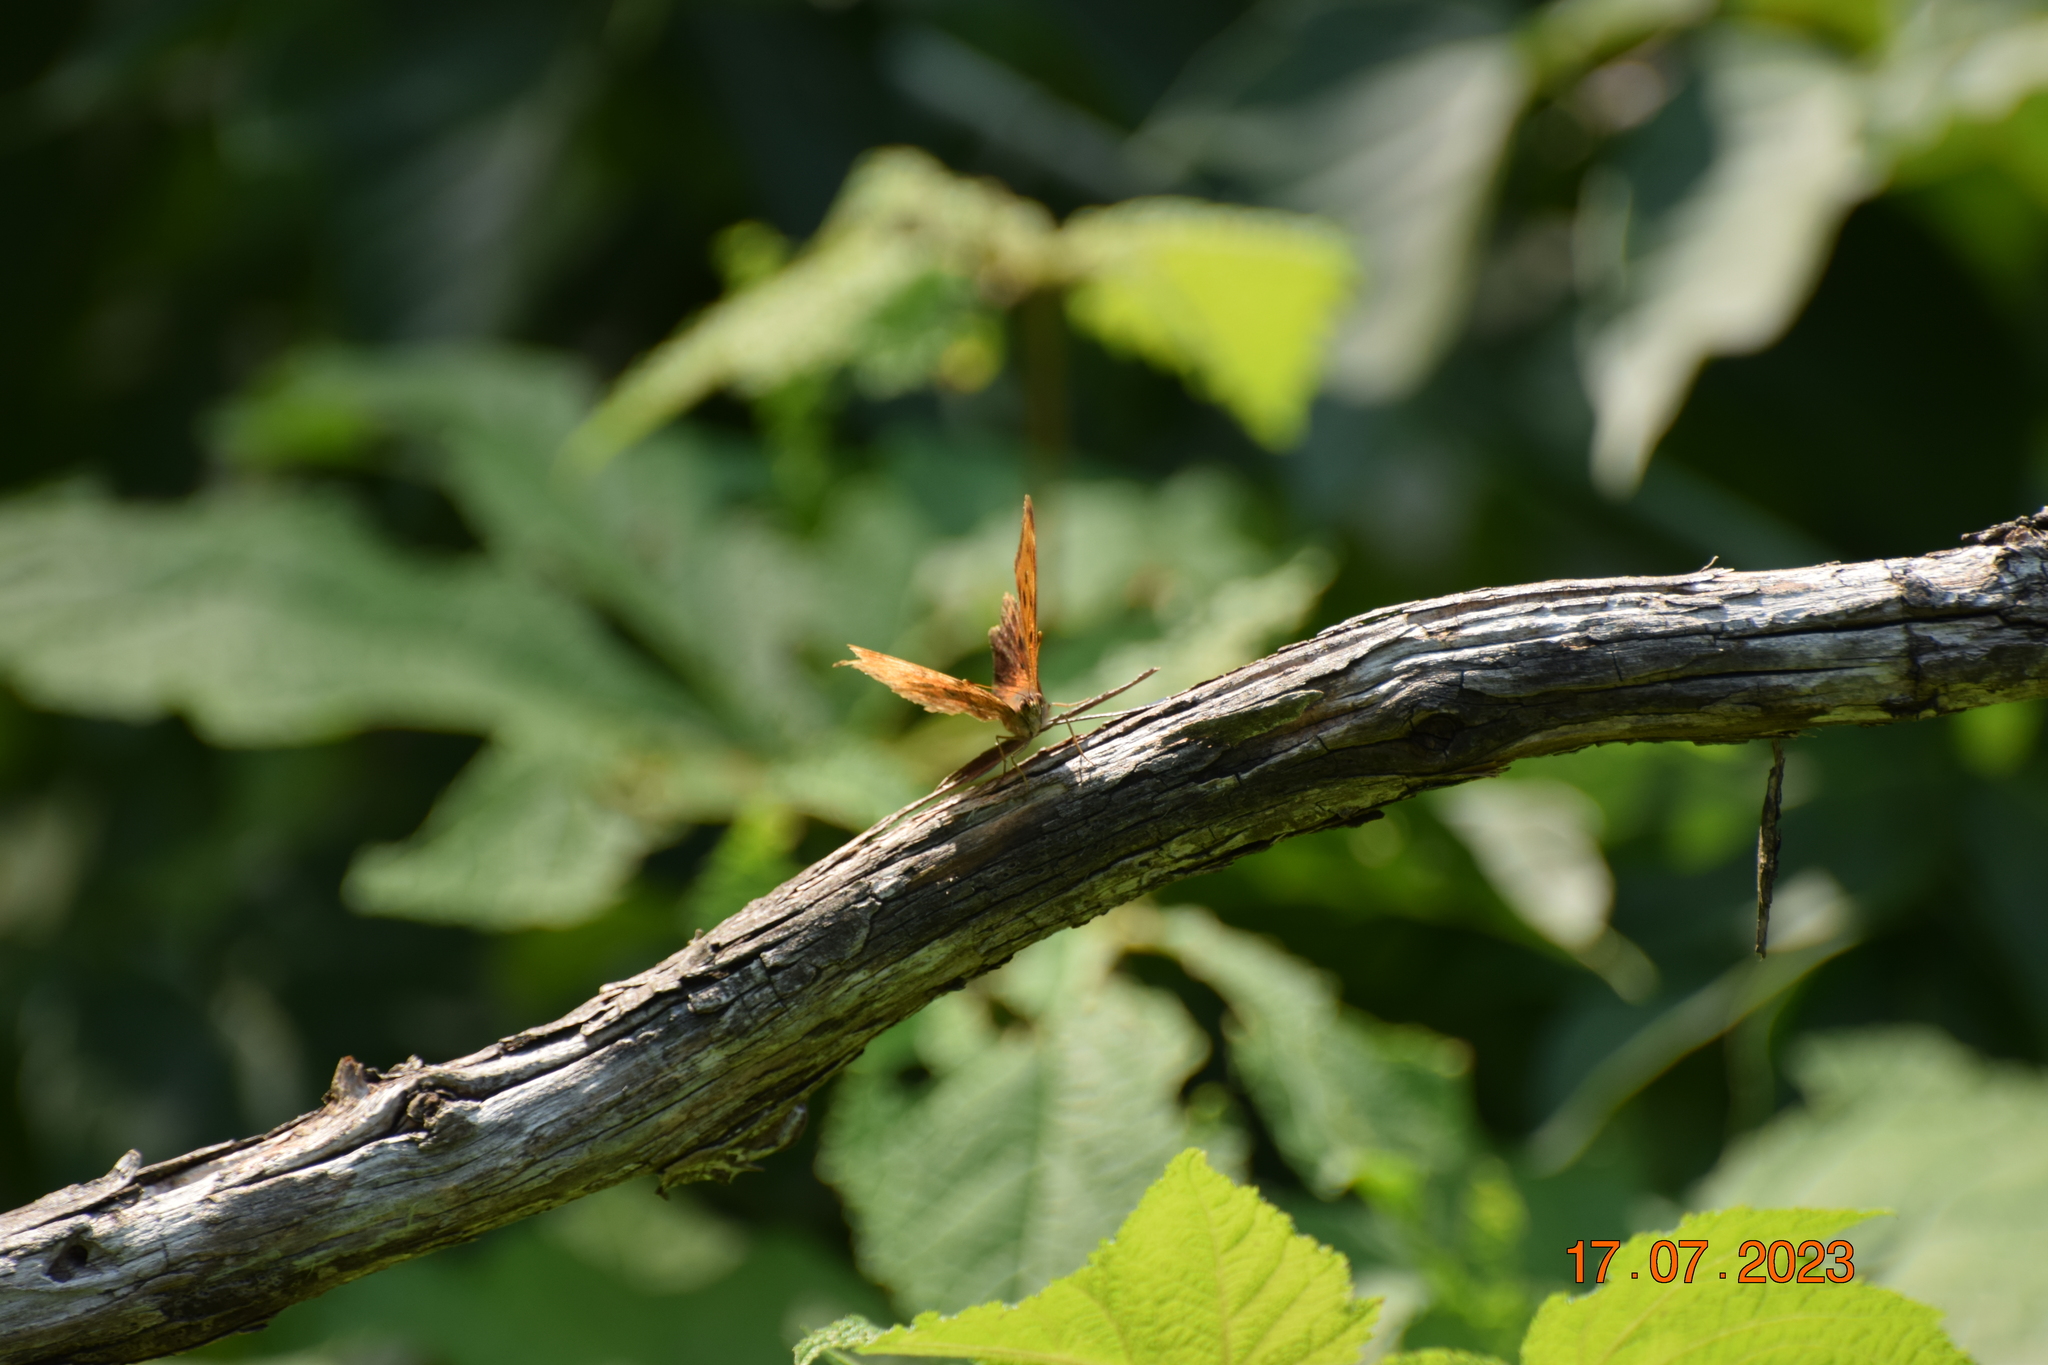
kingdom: Animalia
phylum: Arthropoda
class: Insecta
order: Lepidoptera
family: Nymphalidae
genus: Polygonia
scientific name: Polygonia comma
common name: Eastern comma
